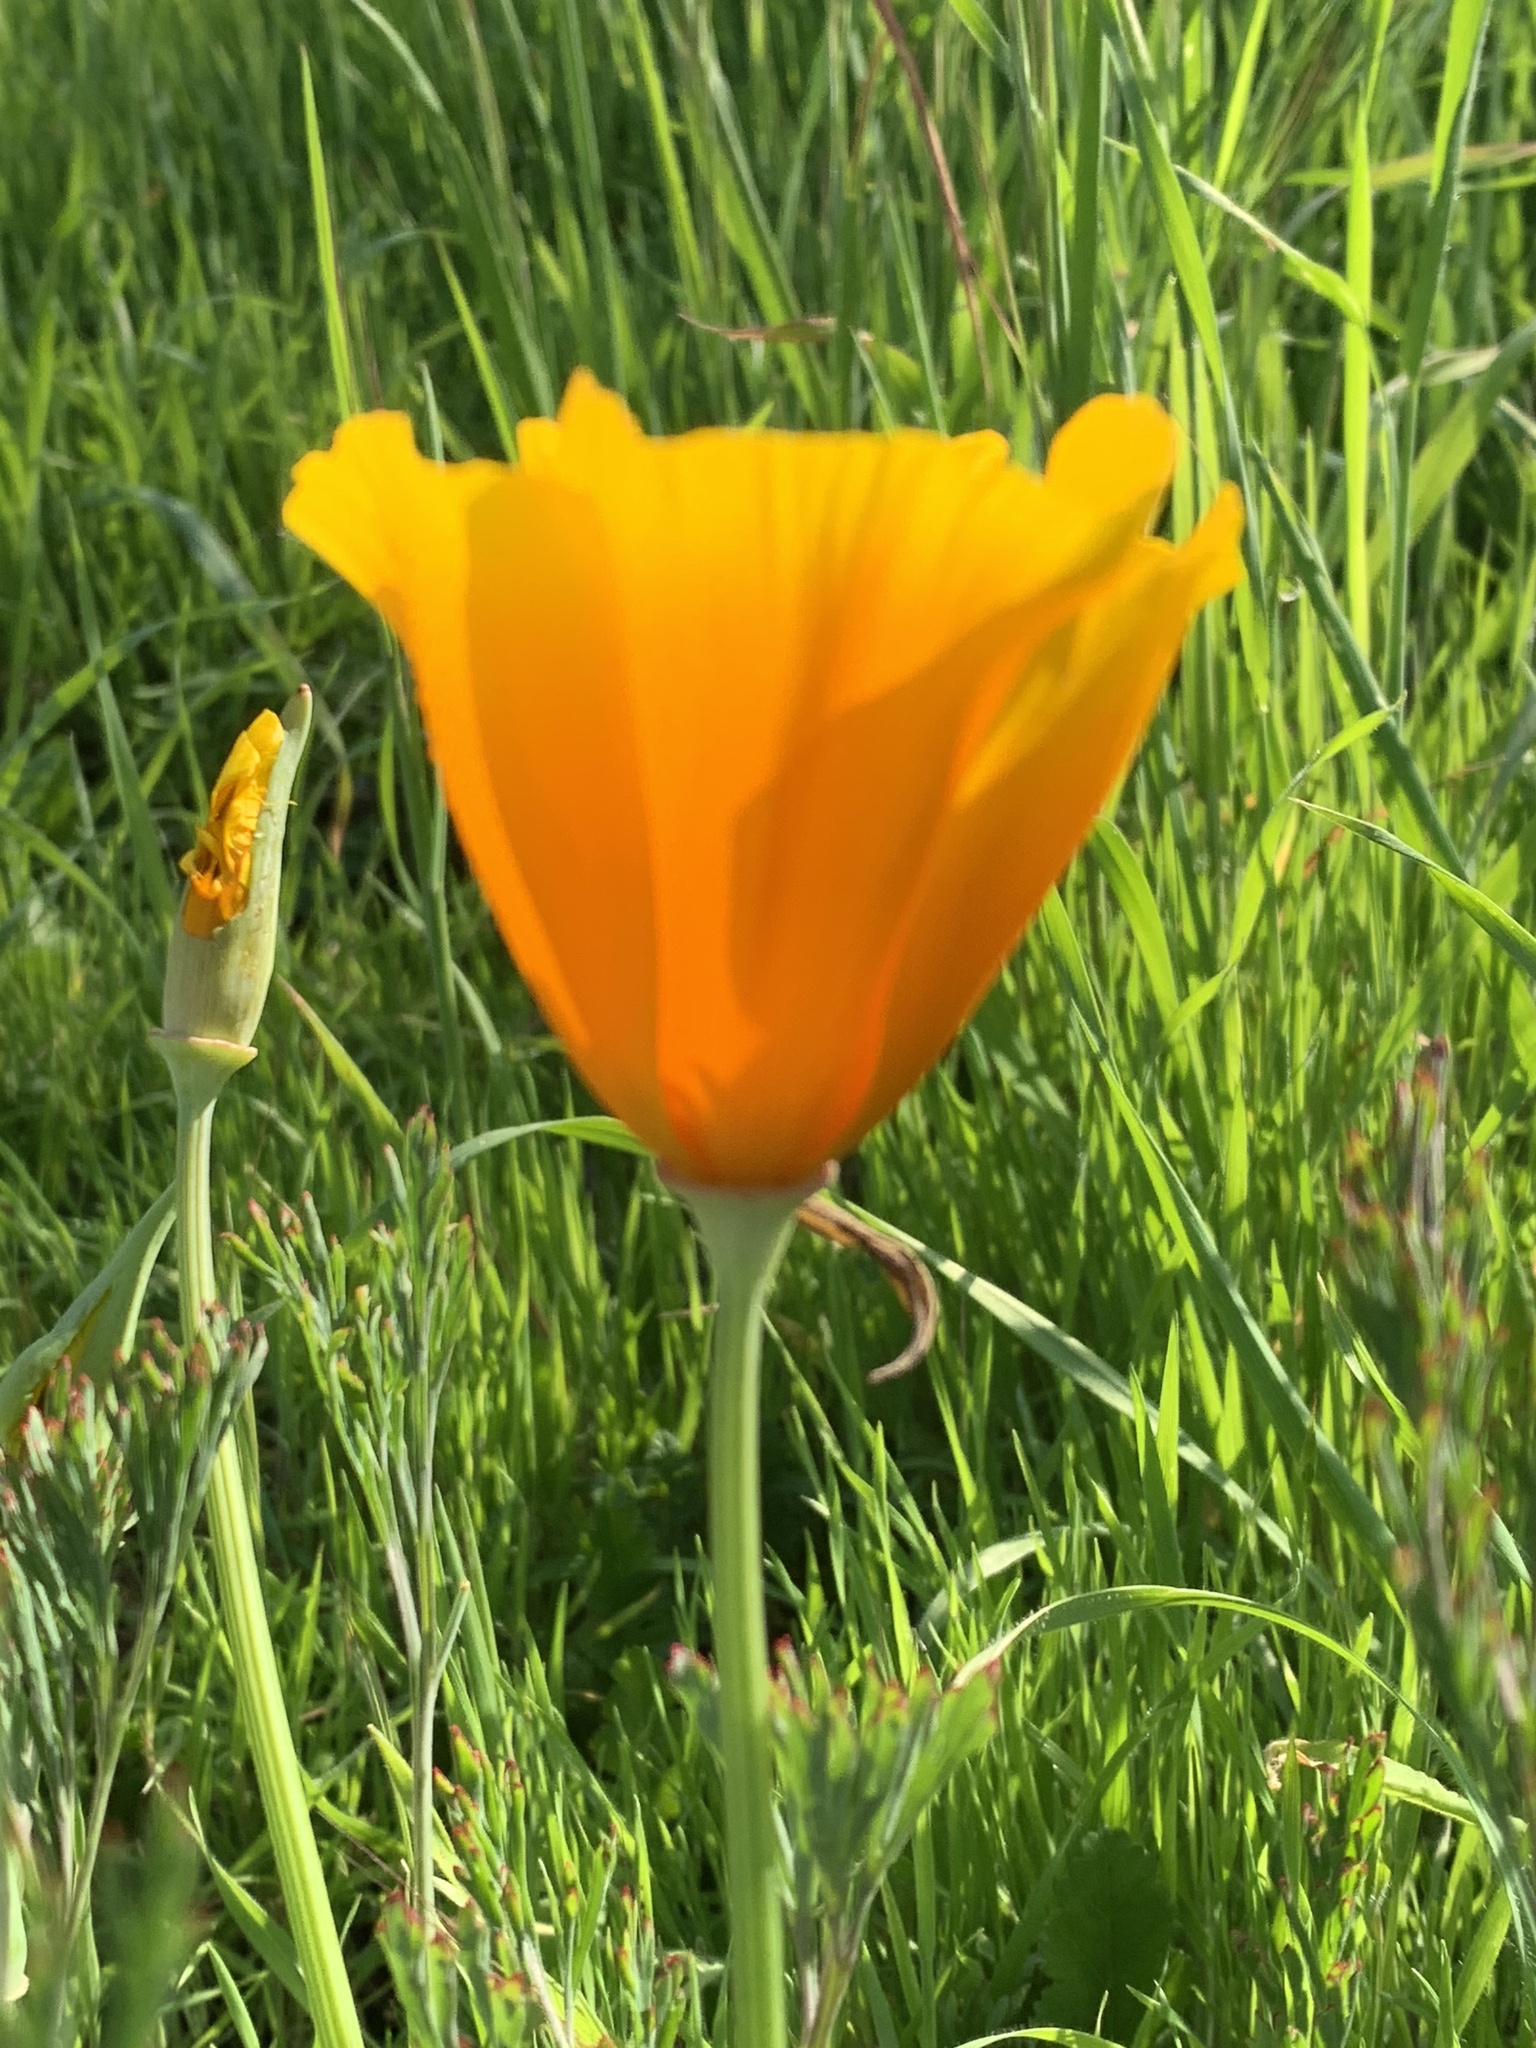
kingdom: Plantae
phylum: Tracheophyta
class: Magnoliopsida
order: Ranunculales
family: Papaveraceae
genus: Eschscholzia
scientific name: Eschscholzia californica
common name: California poppy
